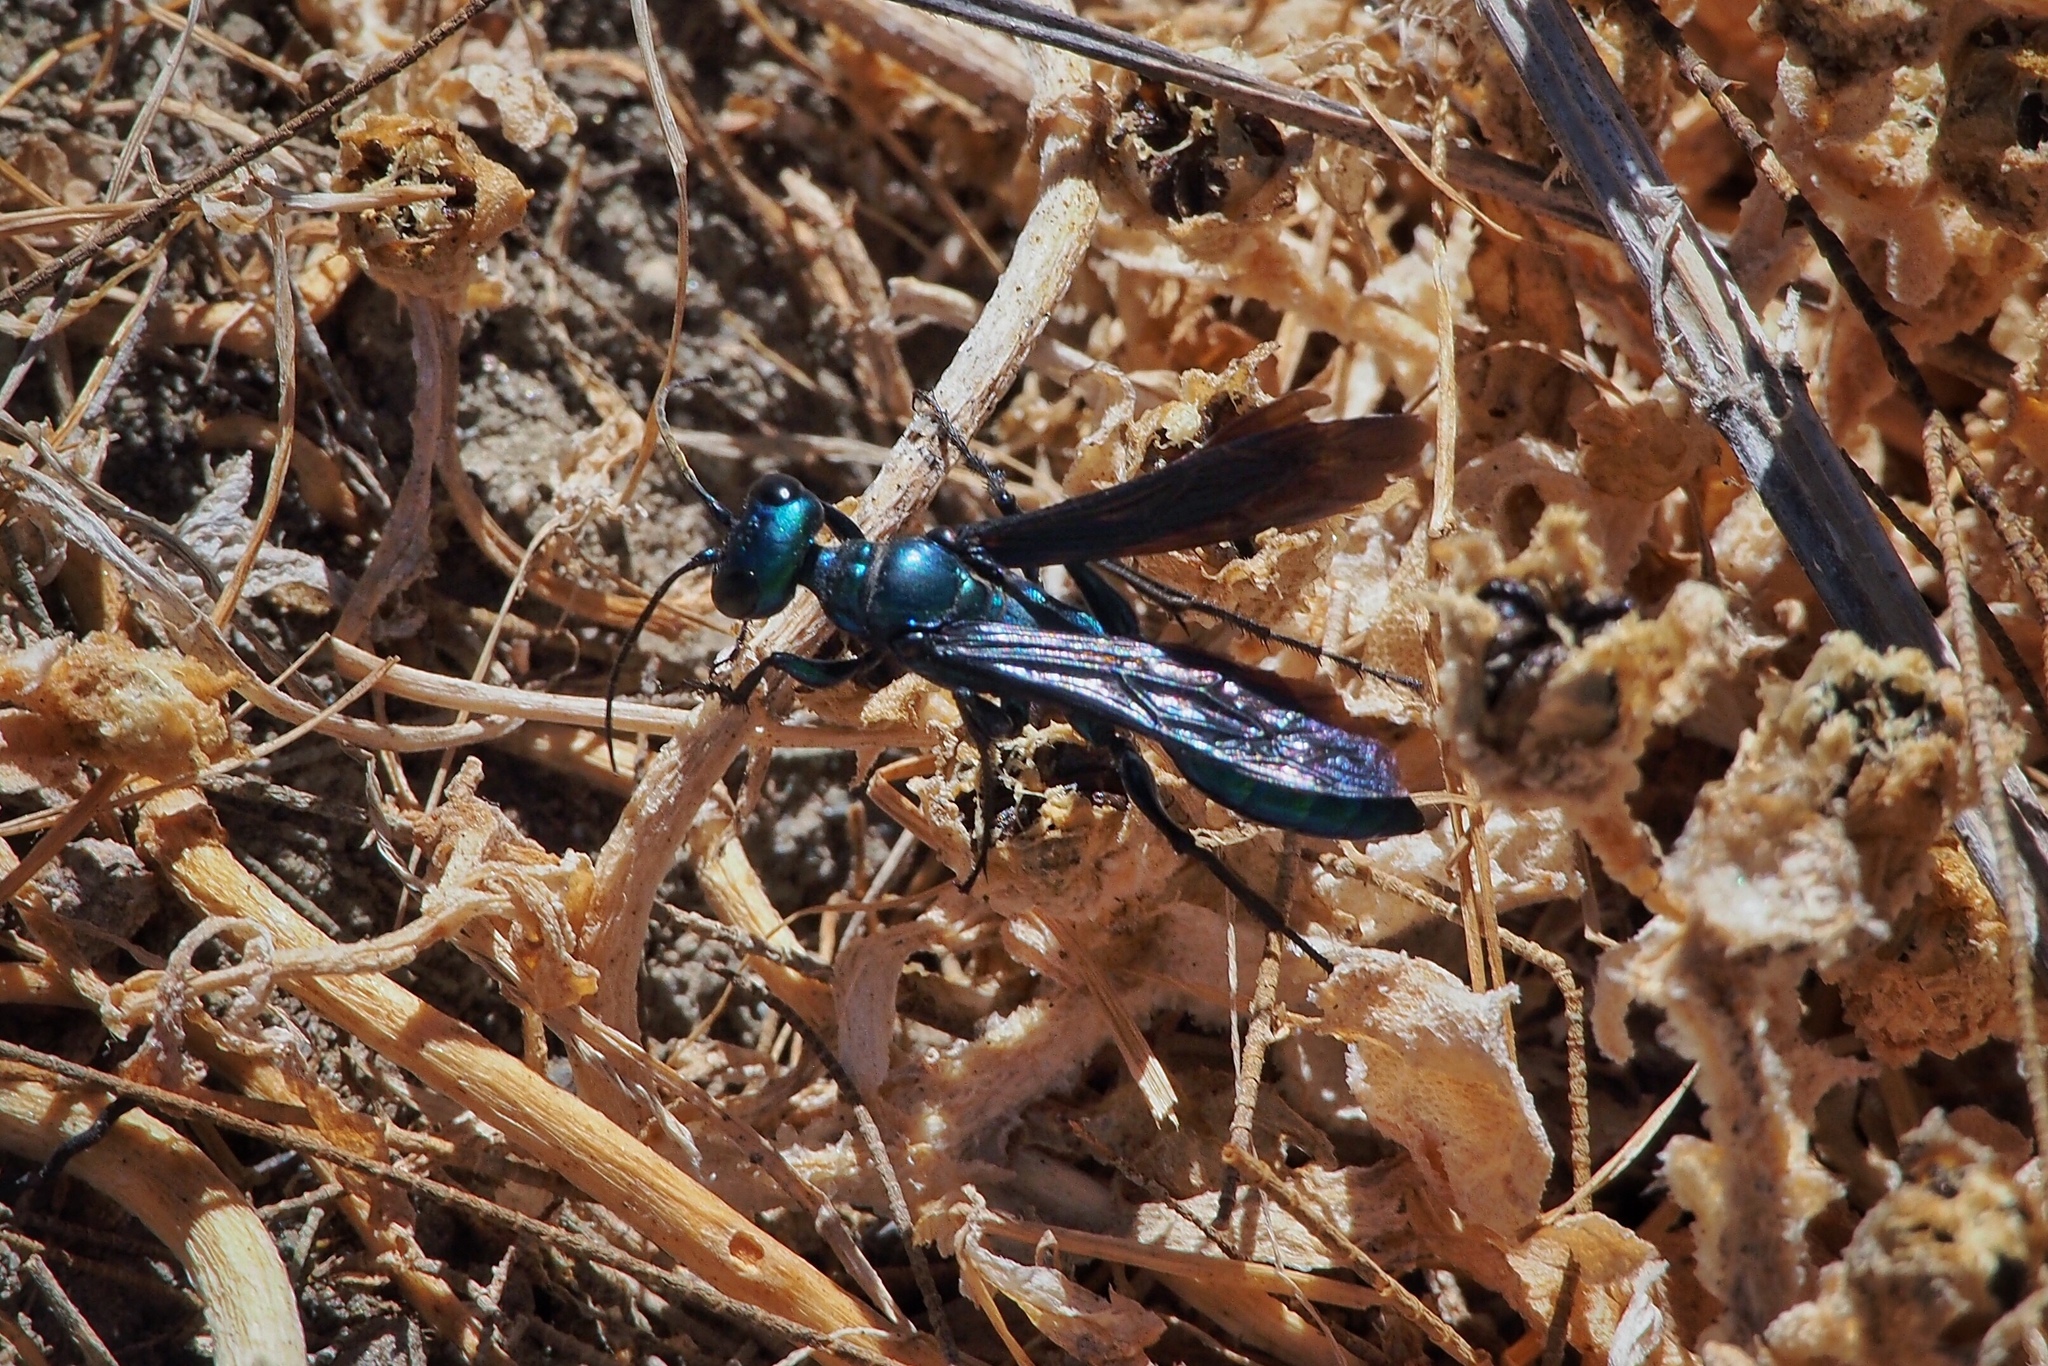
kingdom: Animalia
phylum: Arthropoda
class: Insecta
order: Hymenoptera
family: Sphecidae
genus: Chlorion
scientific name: Chlorion aerarium
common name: Steel-blue cricket hunter
